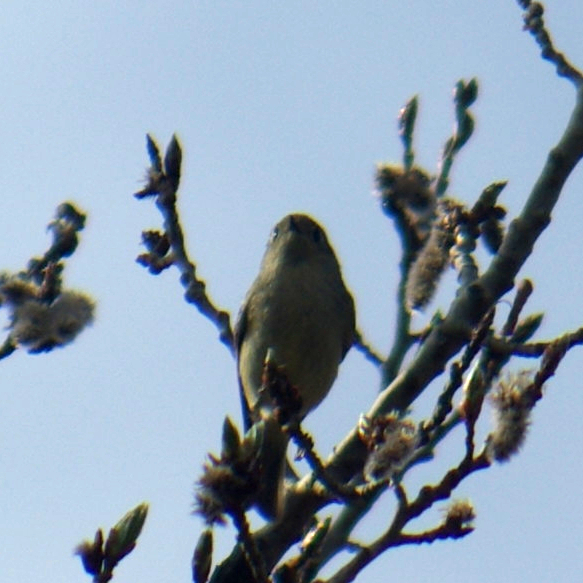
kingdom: Animalia
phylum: Chordata
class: Aves
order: Passeriformes
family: Regulidae
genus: Regulus
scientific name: Regulus calendula
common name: Ruby-crowned kinglet
